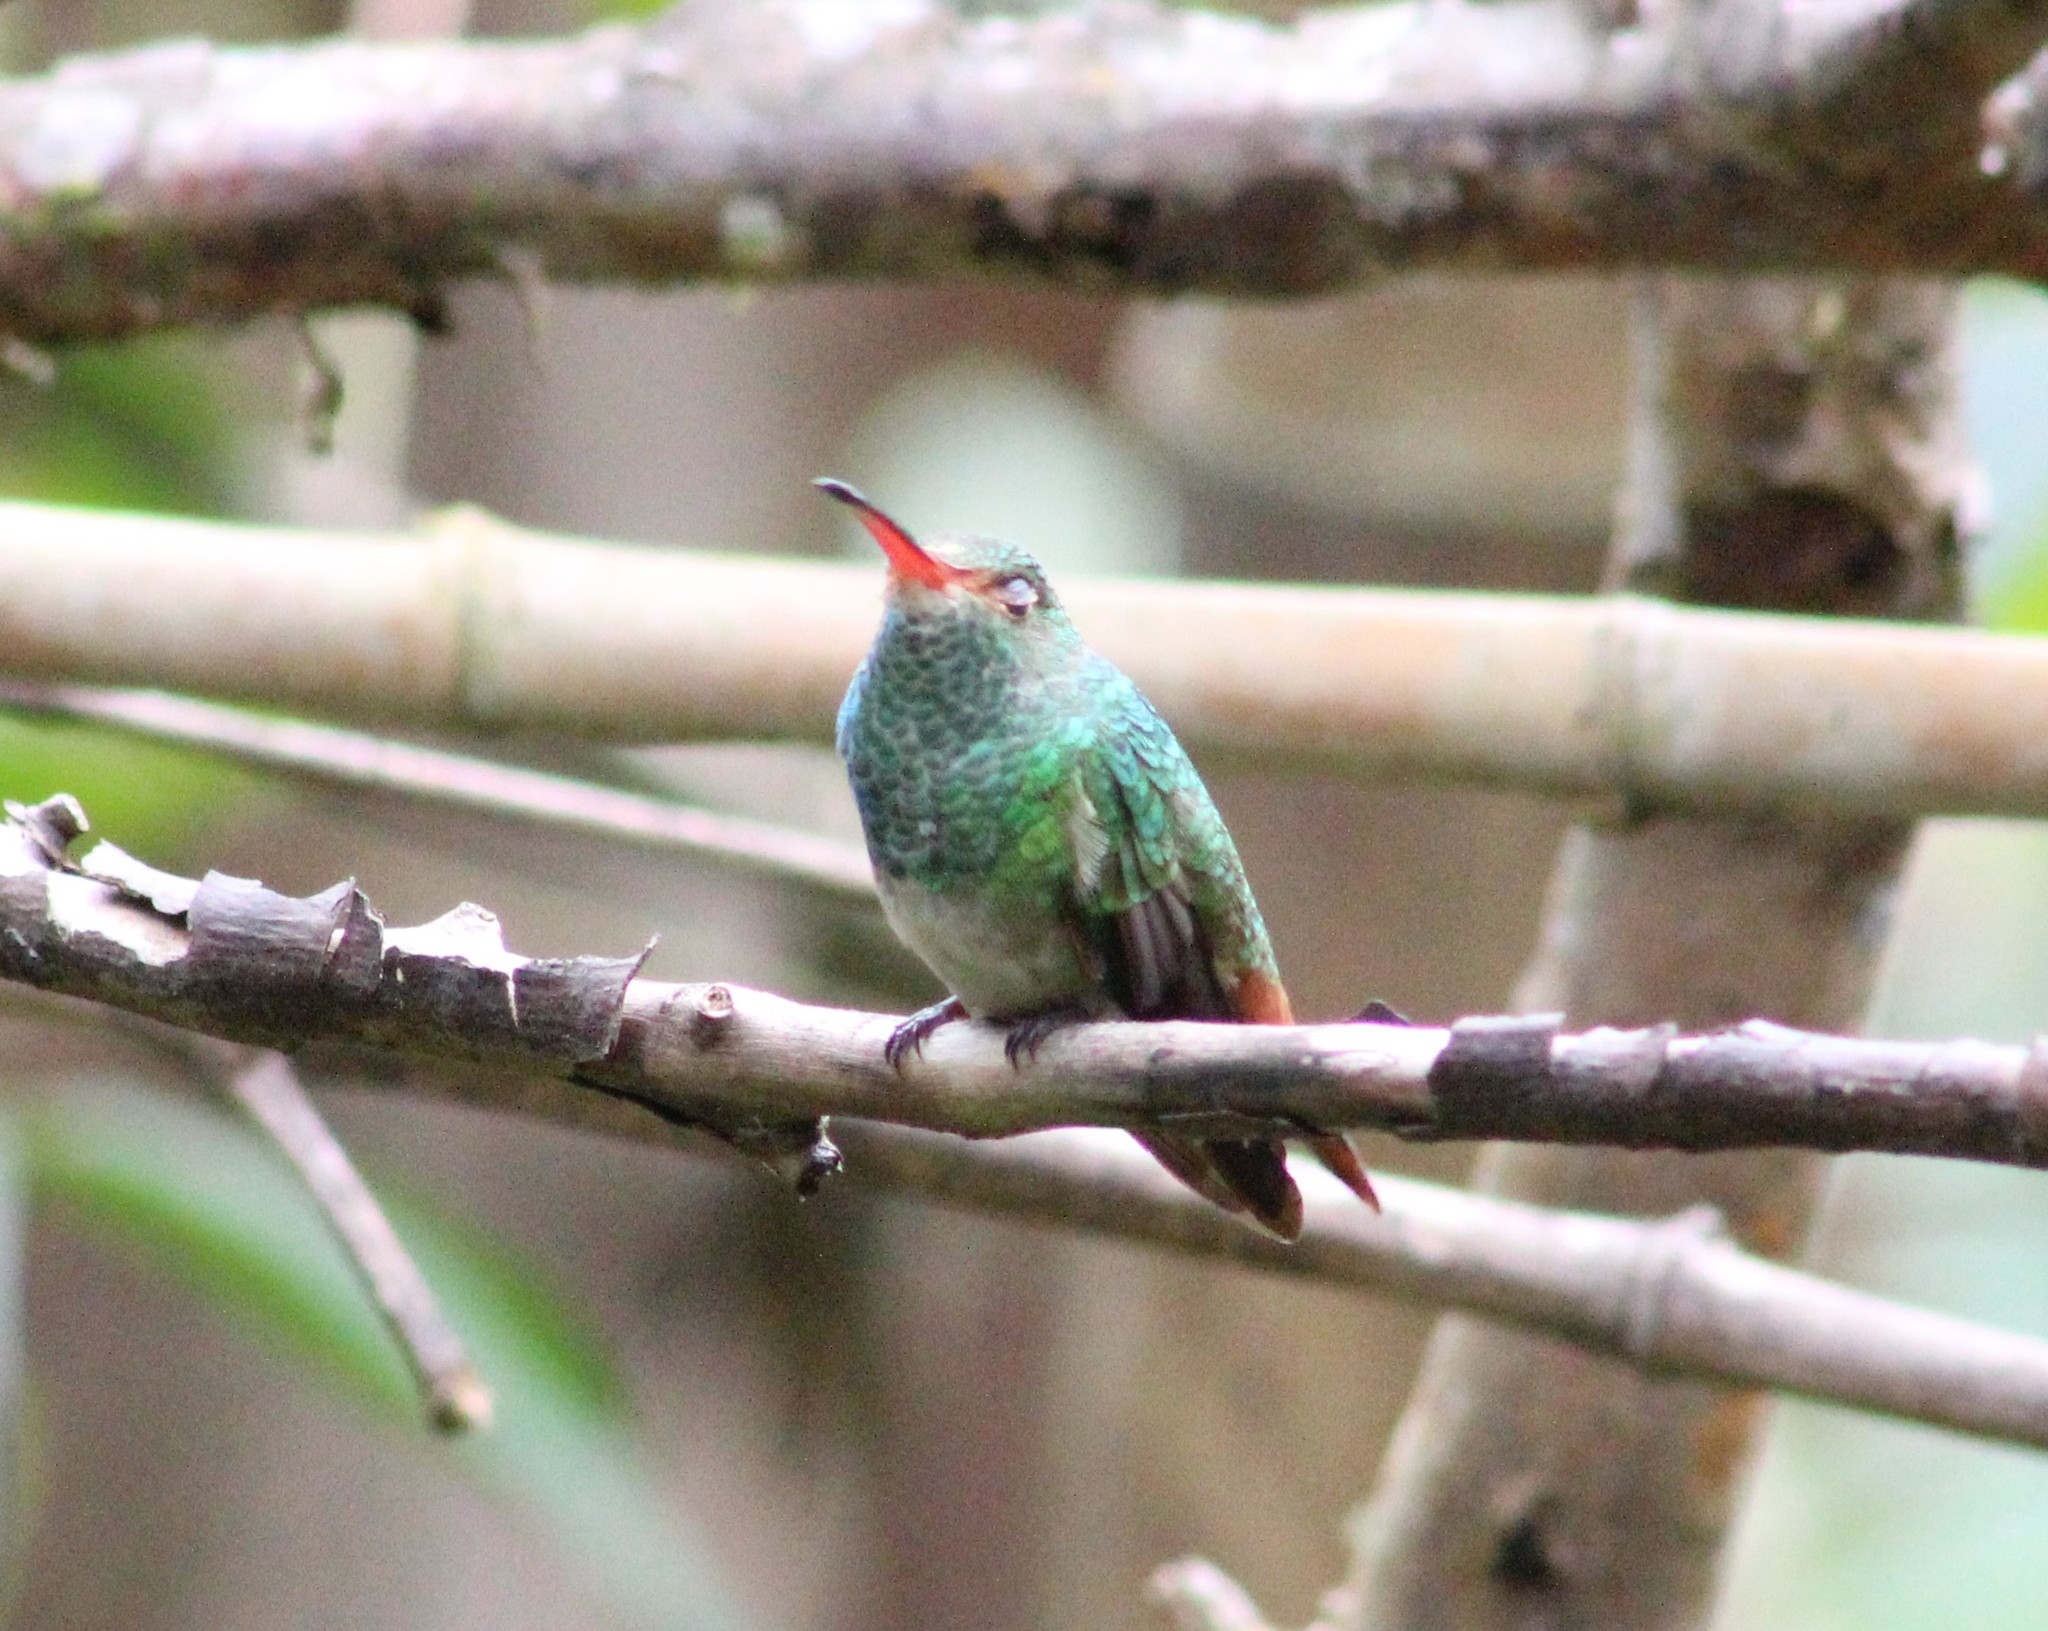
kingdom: Animalia
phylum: Chordata
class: Aves
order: Apodiformes
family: Trochilidae
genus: Amazilia
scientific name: Amazilia tzacatl
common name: Rufous-tailed hummingbird
